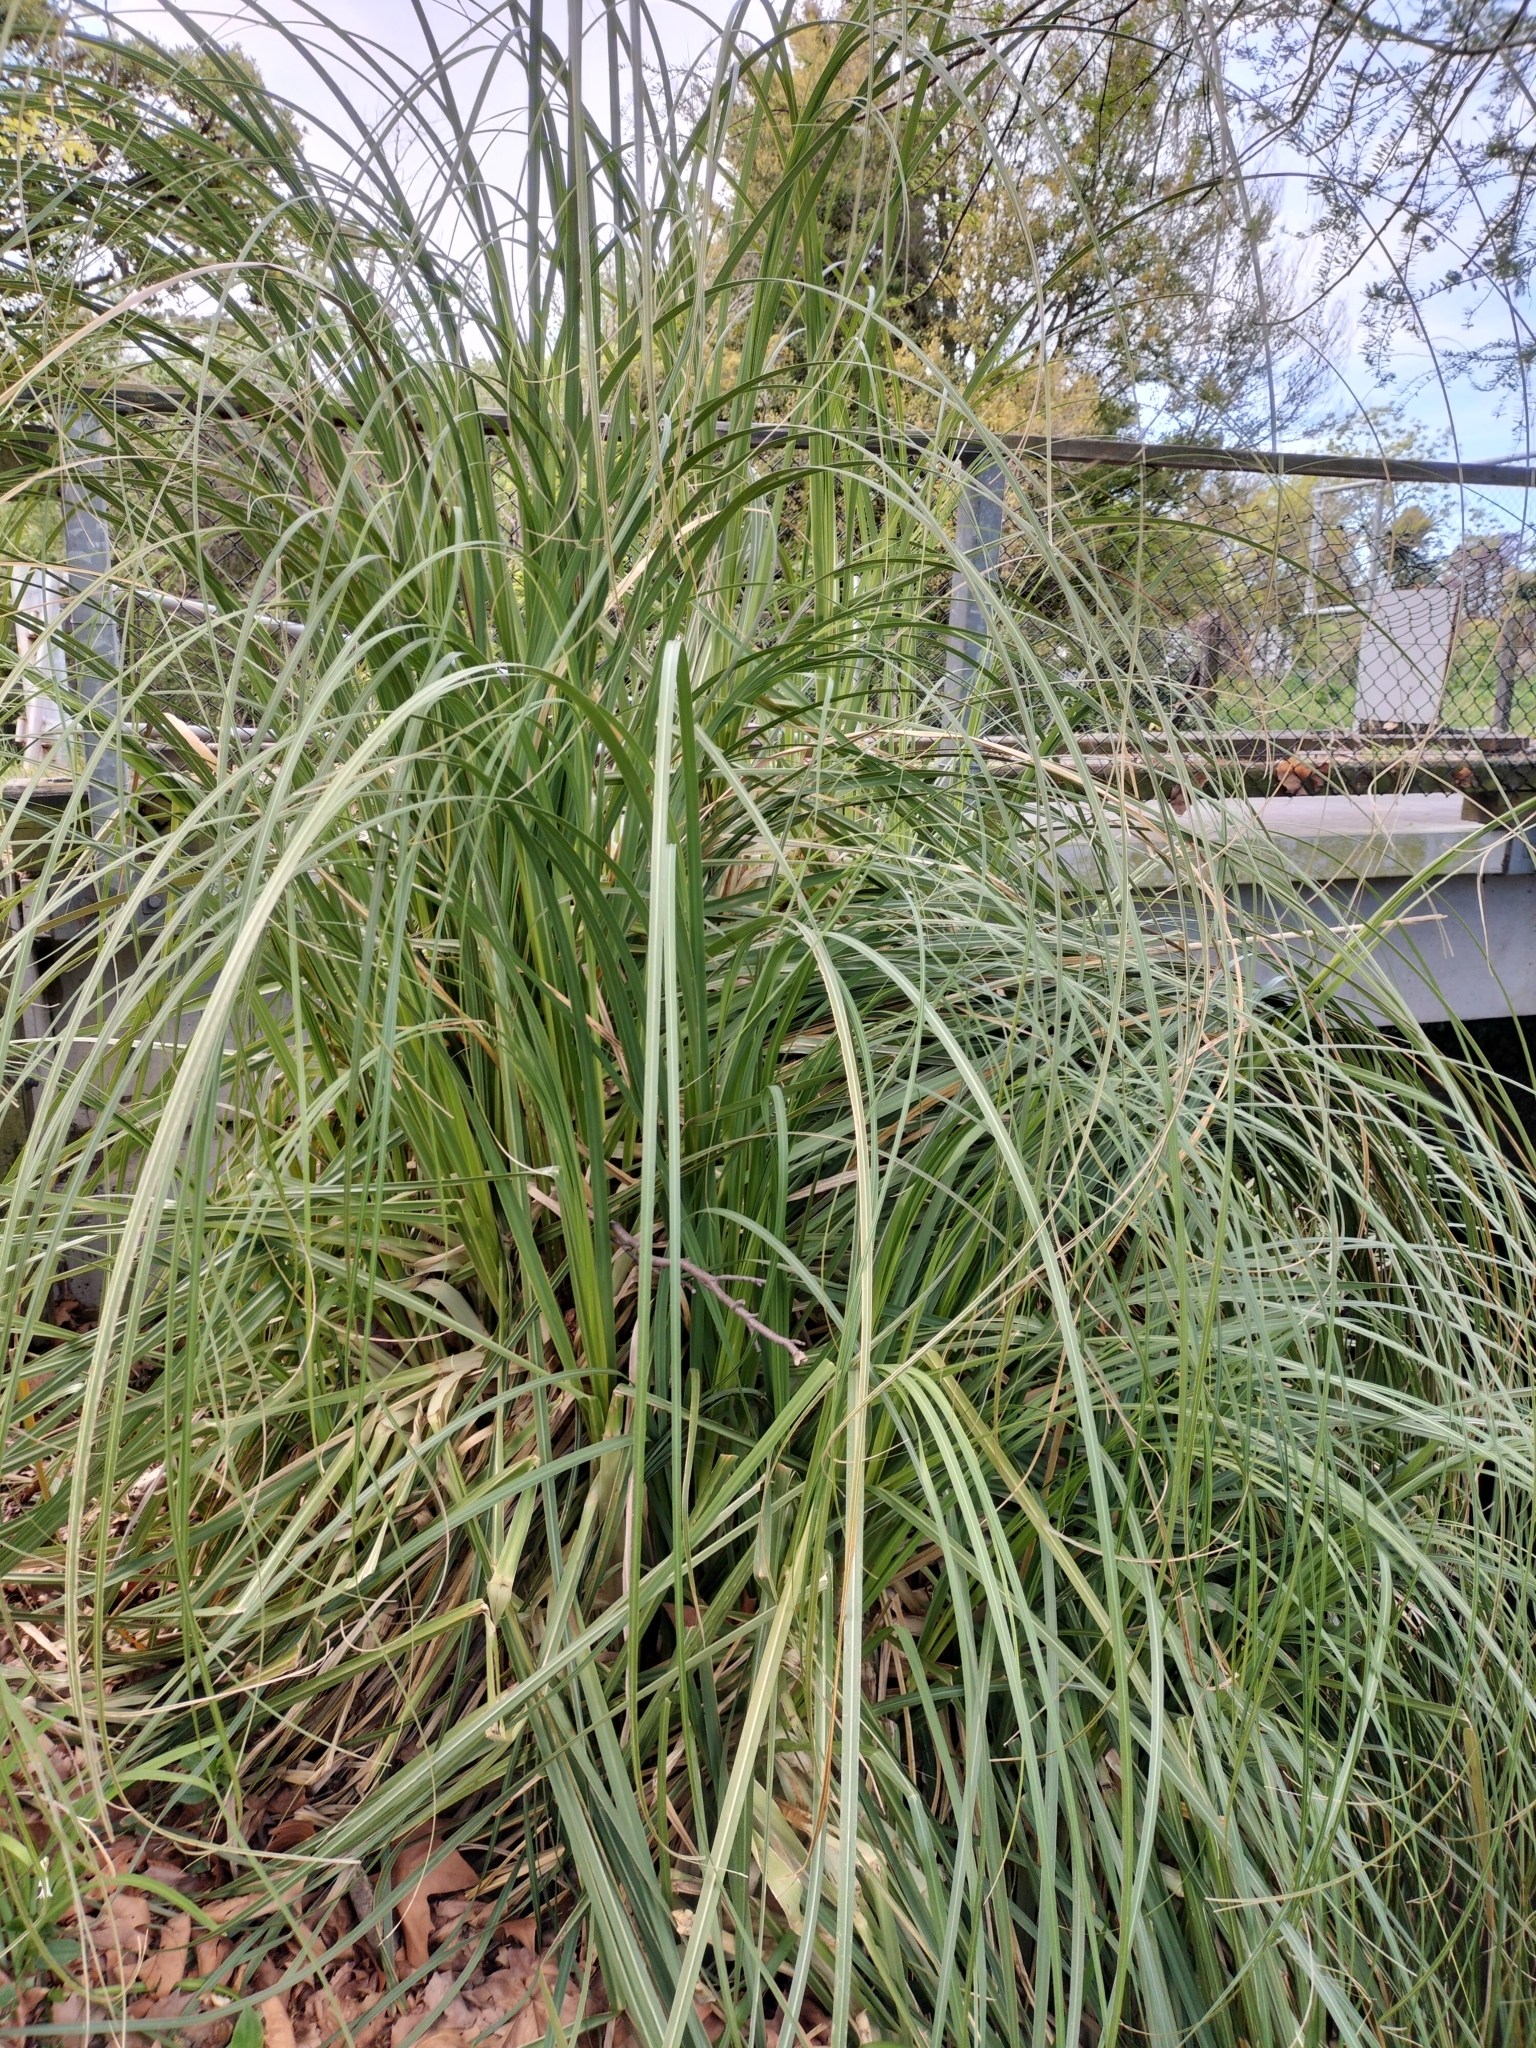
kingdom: Plantae
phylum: Tracheophyta
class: Liliopsida
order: Poales
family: Poaceae
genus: Cortaderia
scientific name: Cortaderia selloana
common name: Uruguayan pampas grass
